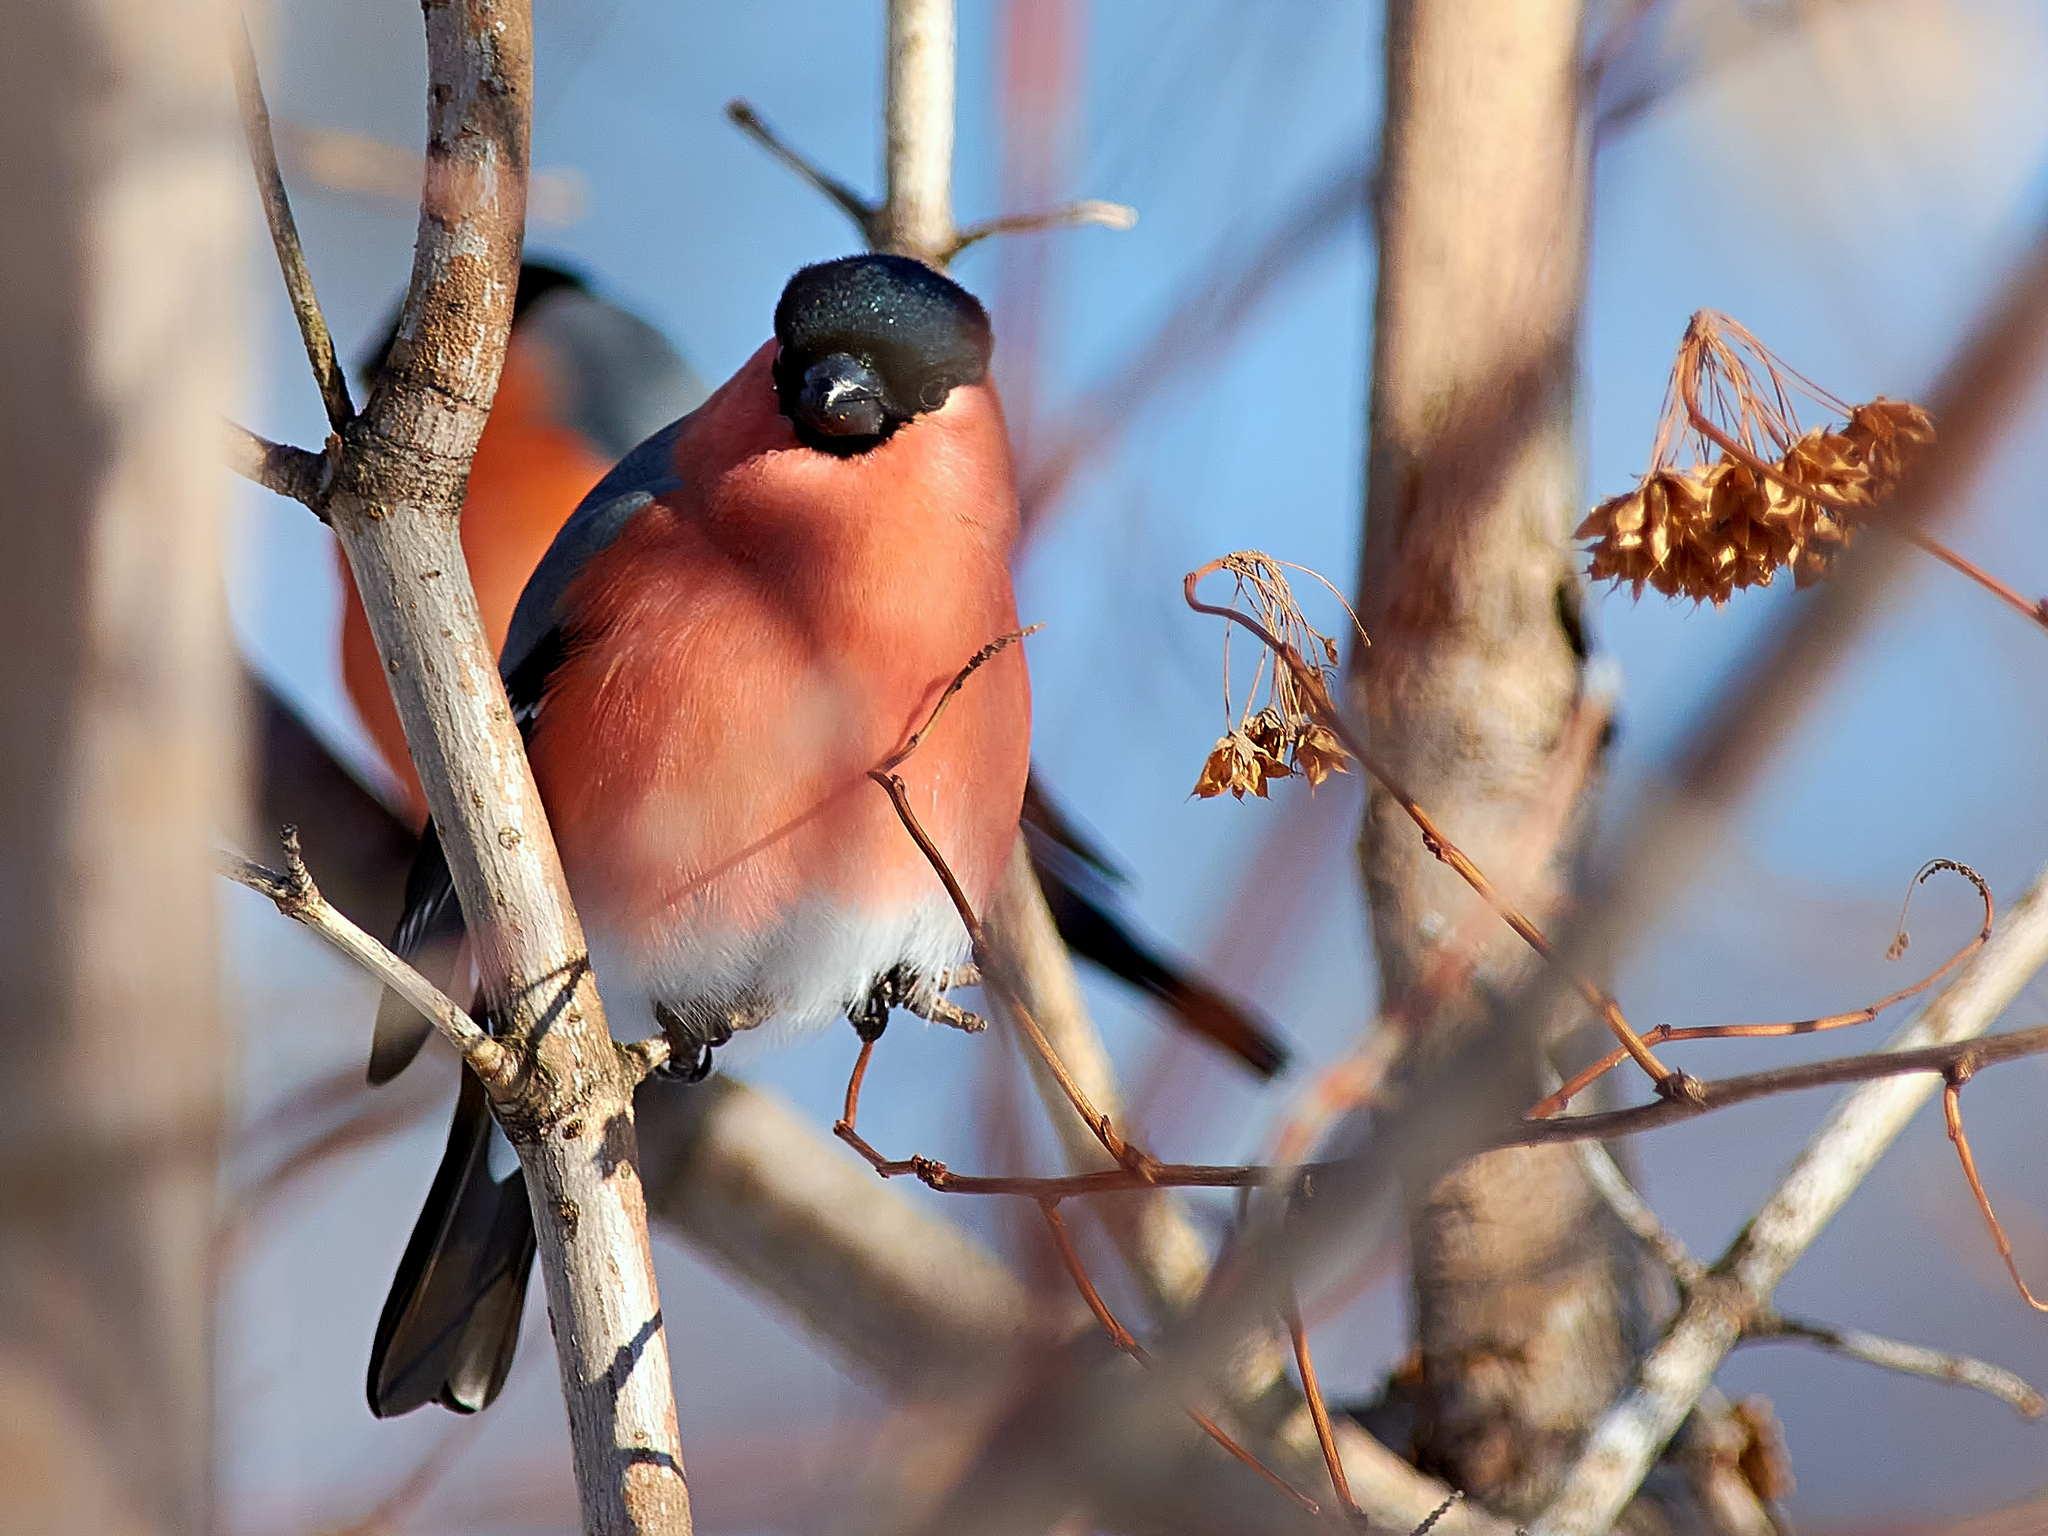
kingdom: Animalia
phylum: Chordata
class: Aves
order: Passeriformes
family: Fringillidae
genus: Pyrrhula
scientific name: Pyrrhula pyrrhula
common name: Eurasian bullfinch
